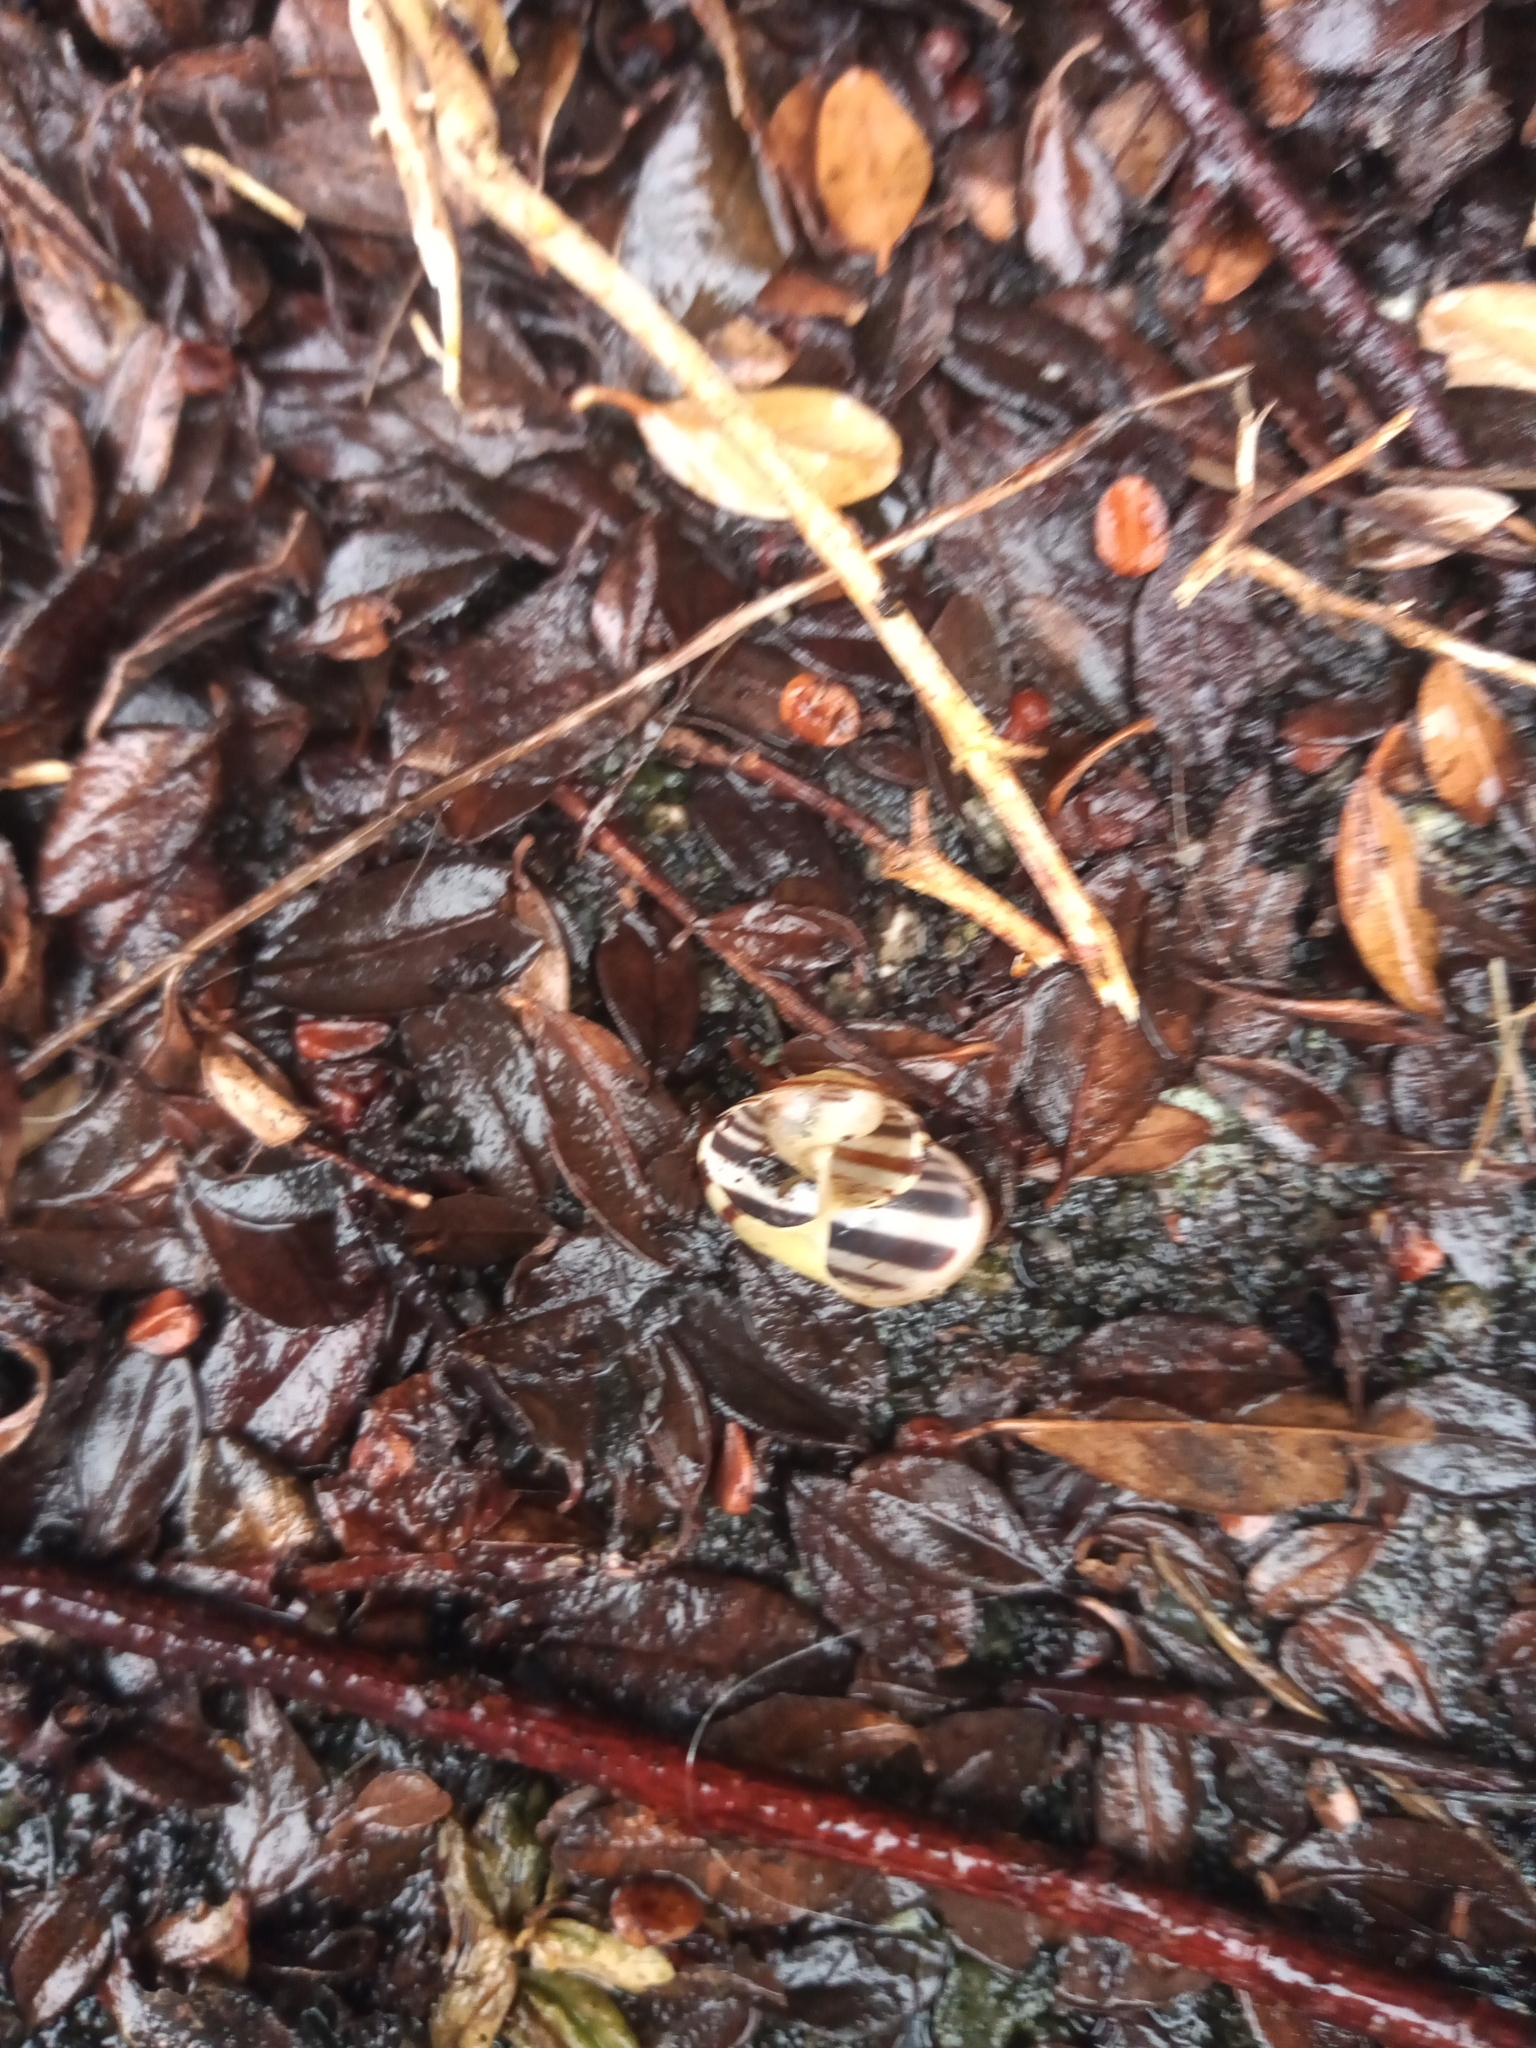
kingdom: Animalia
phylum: Mollusca
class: Gastropoda
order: Stylommatophora
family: Helicidae
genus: Cepaea
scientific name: Cepaea
